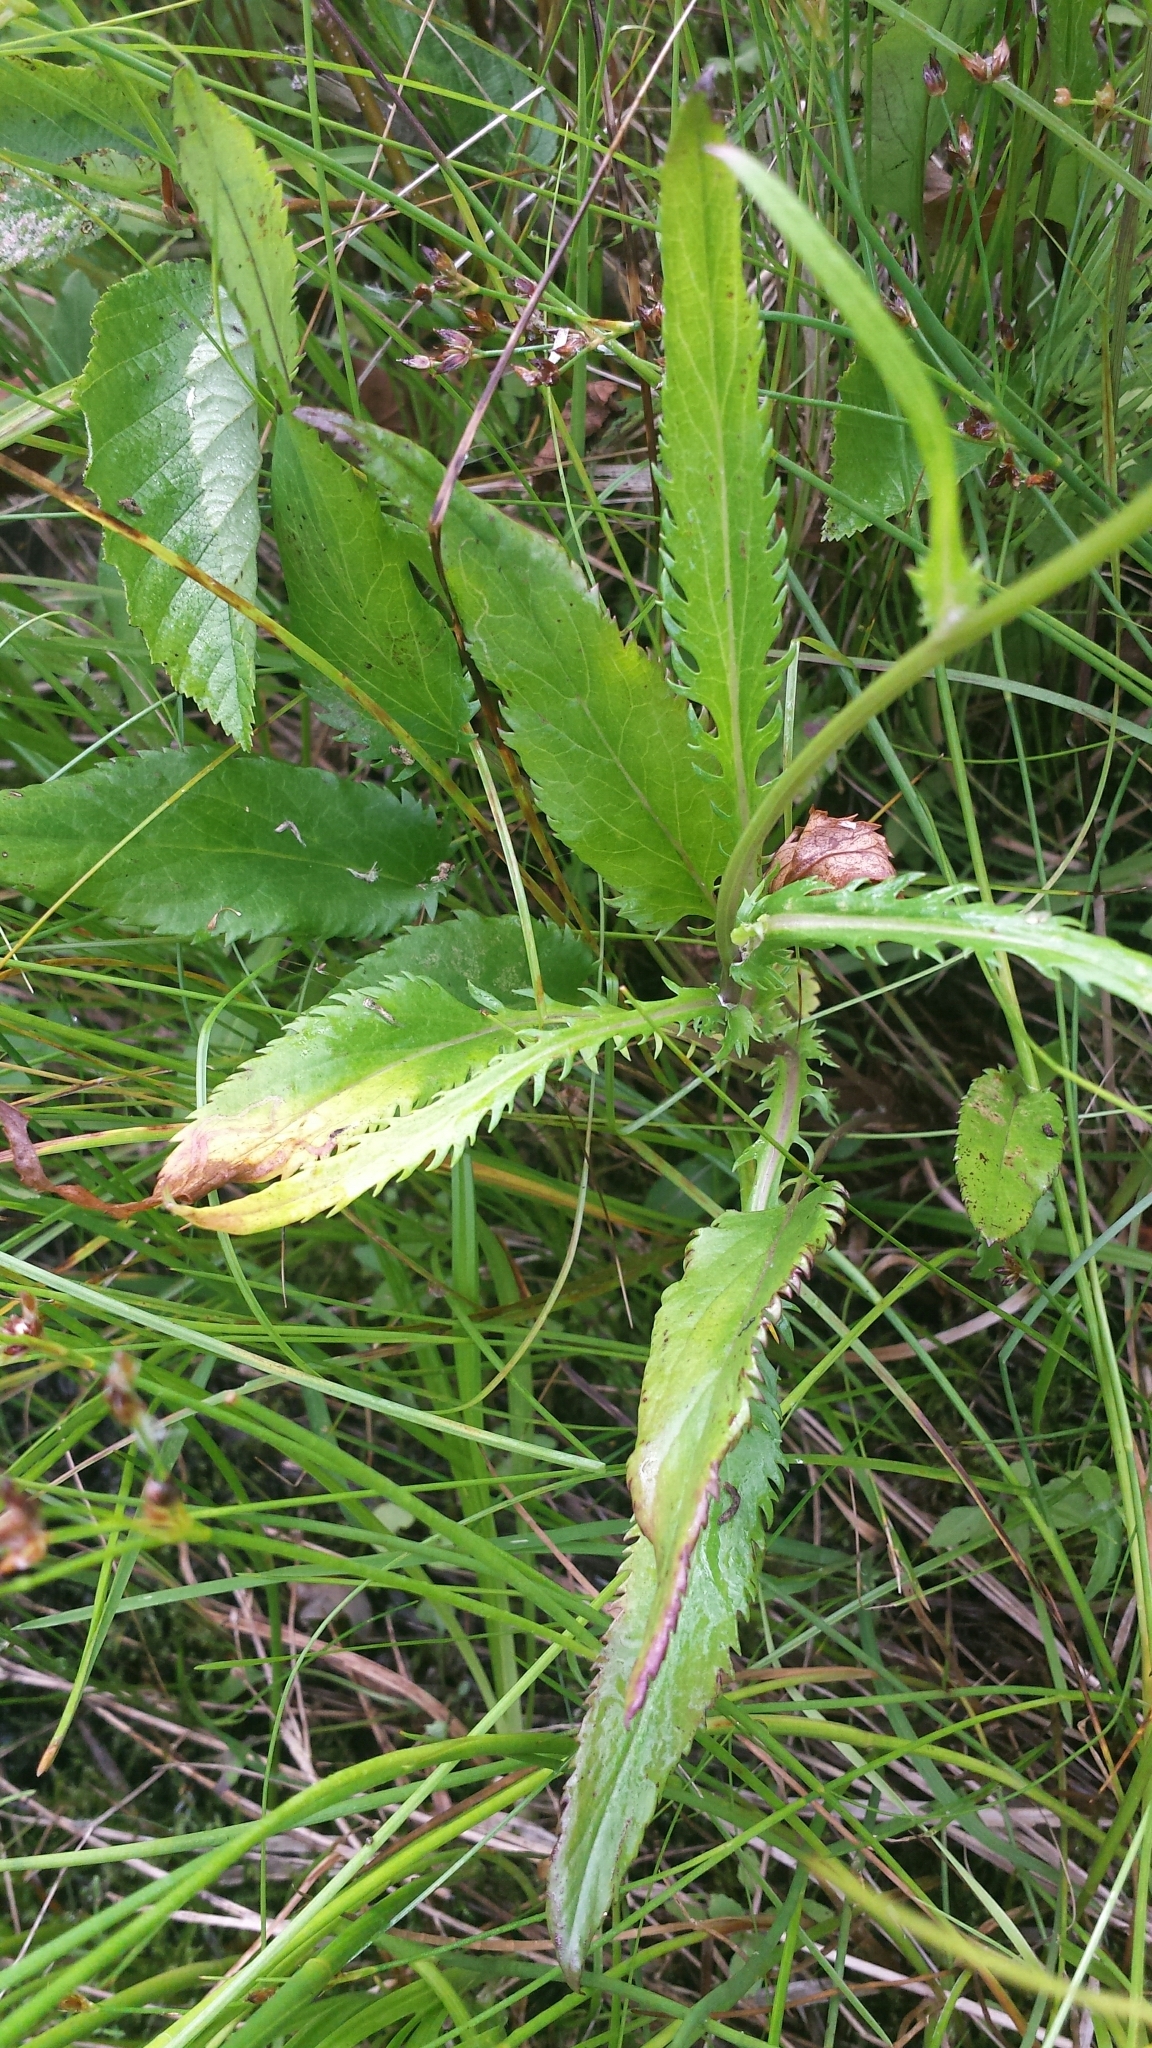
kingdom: Plantae
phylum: Tracheophyta
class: Magnoliopsida
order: Asterales
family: Asteraceae
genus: Packera
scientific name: Packera schweinitziana
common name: Schweinitz's ragwort
